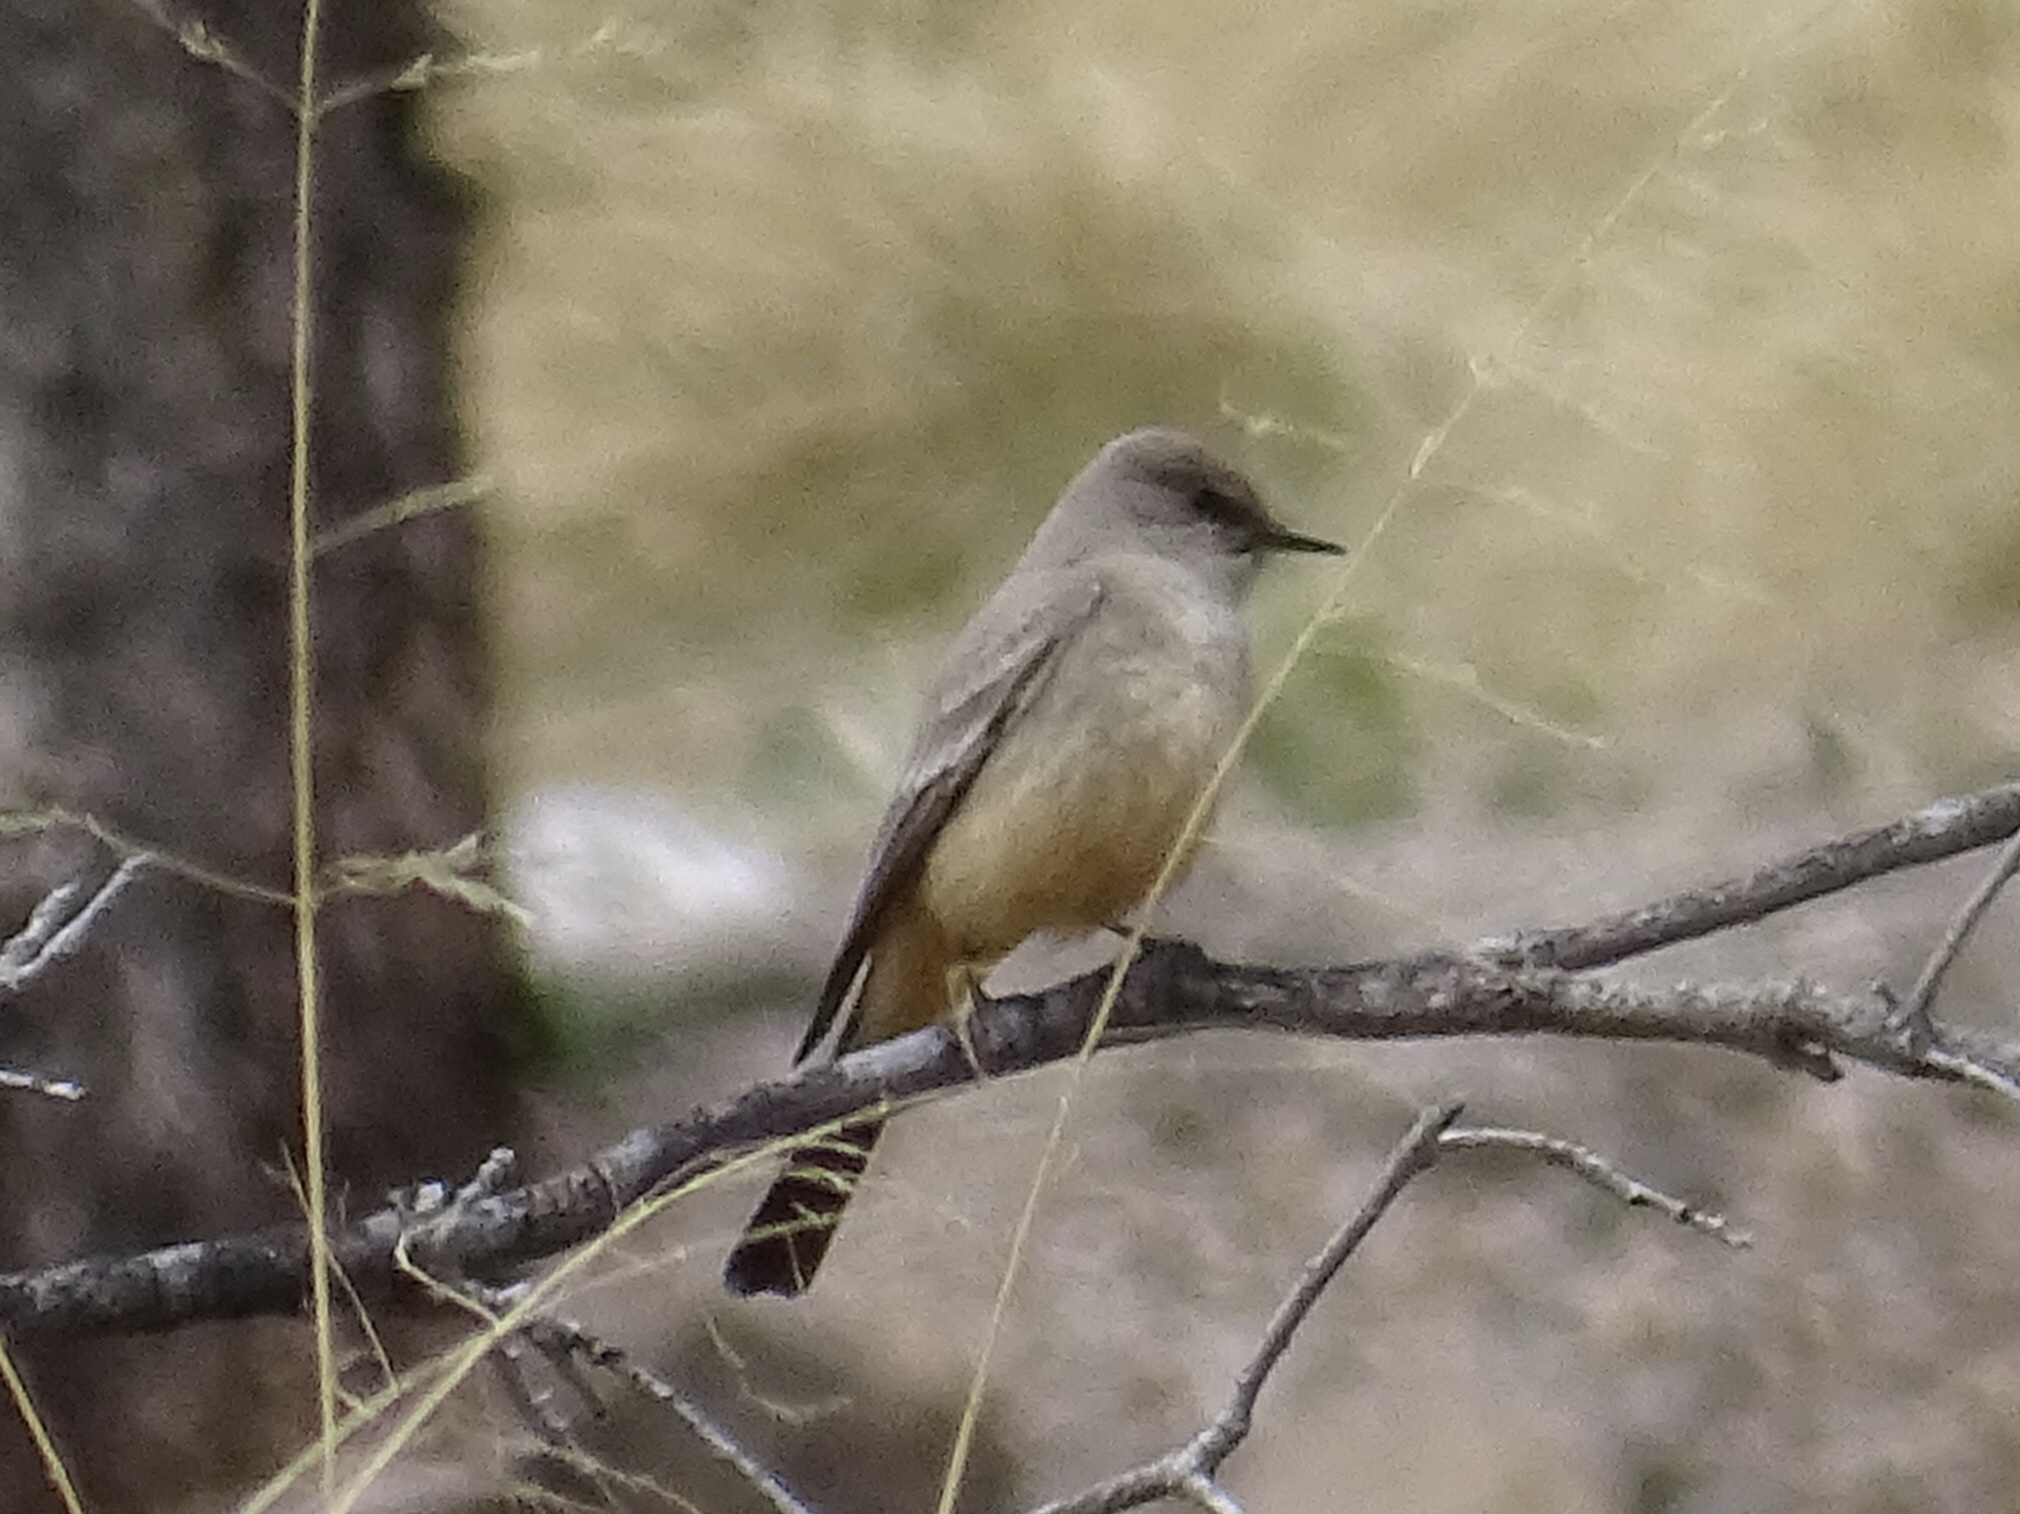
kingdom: Animalia
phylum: Chordata
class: Aves
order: Passeriformes
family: Tyrannidae
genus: Sayornis
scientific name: Sayornis saya
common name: Say's phoebe
